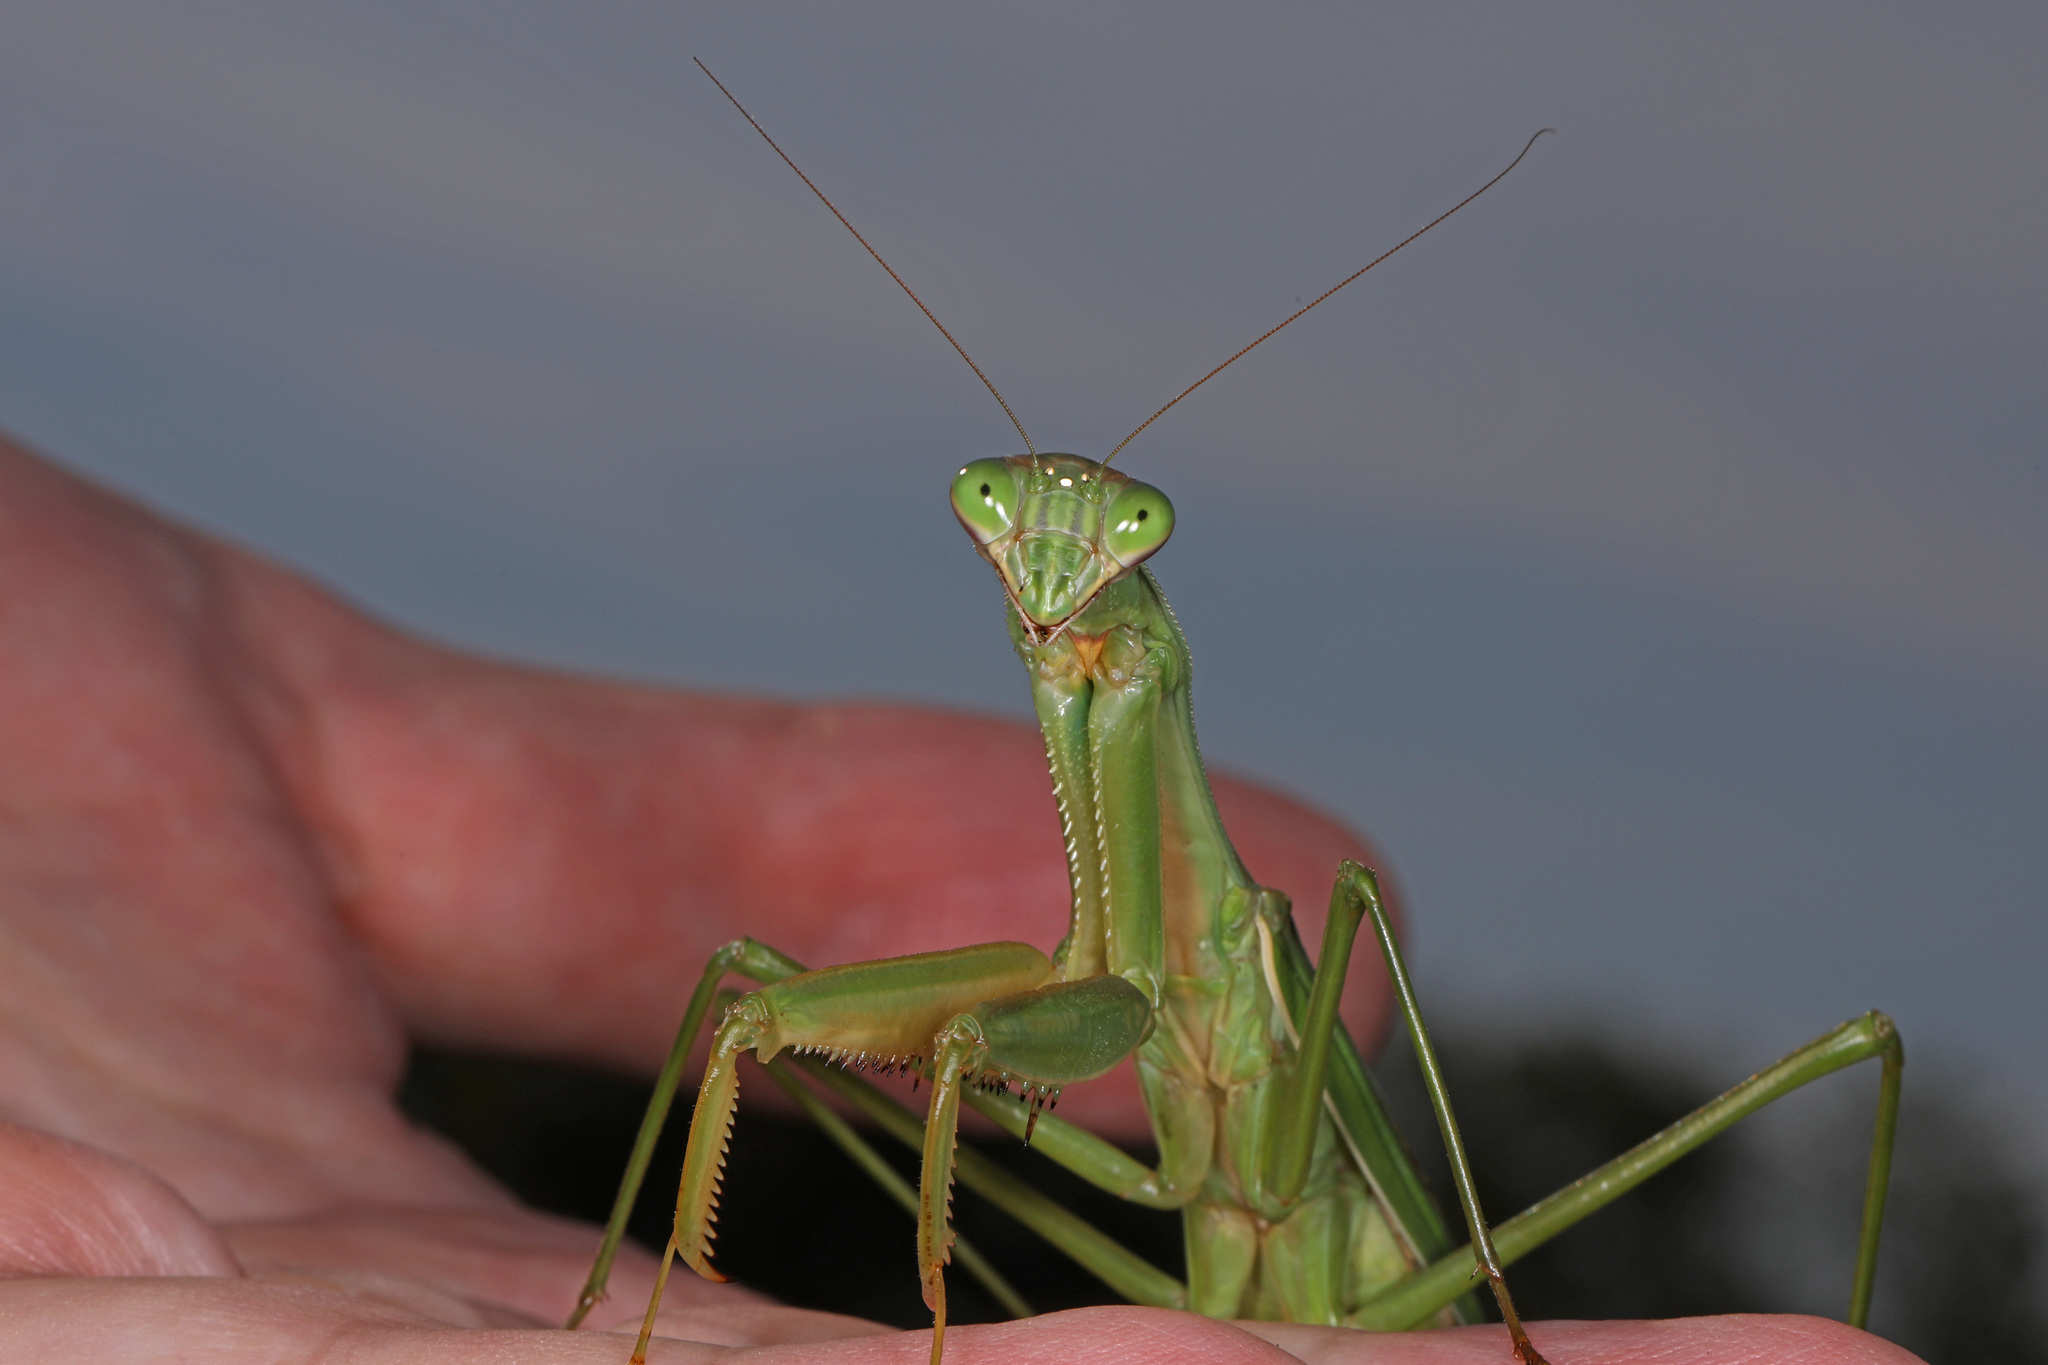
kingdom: Animalia
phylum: Arthropoda
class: Insecta
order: Mantodea
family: Mantidae
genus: Tenodera
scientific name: Tenodera sinensis
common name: Chinese mantis
